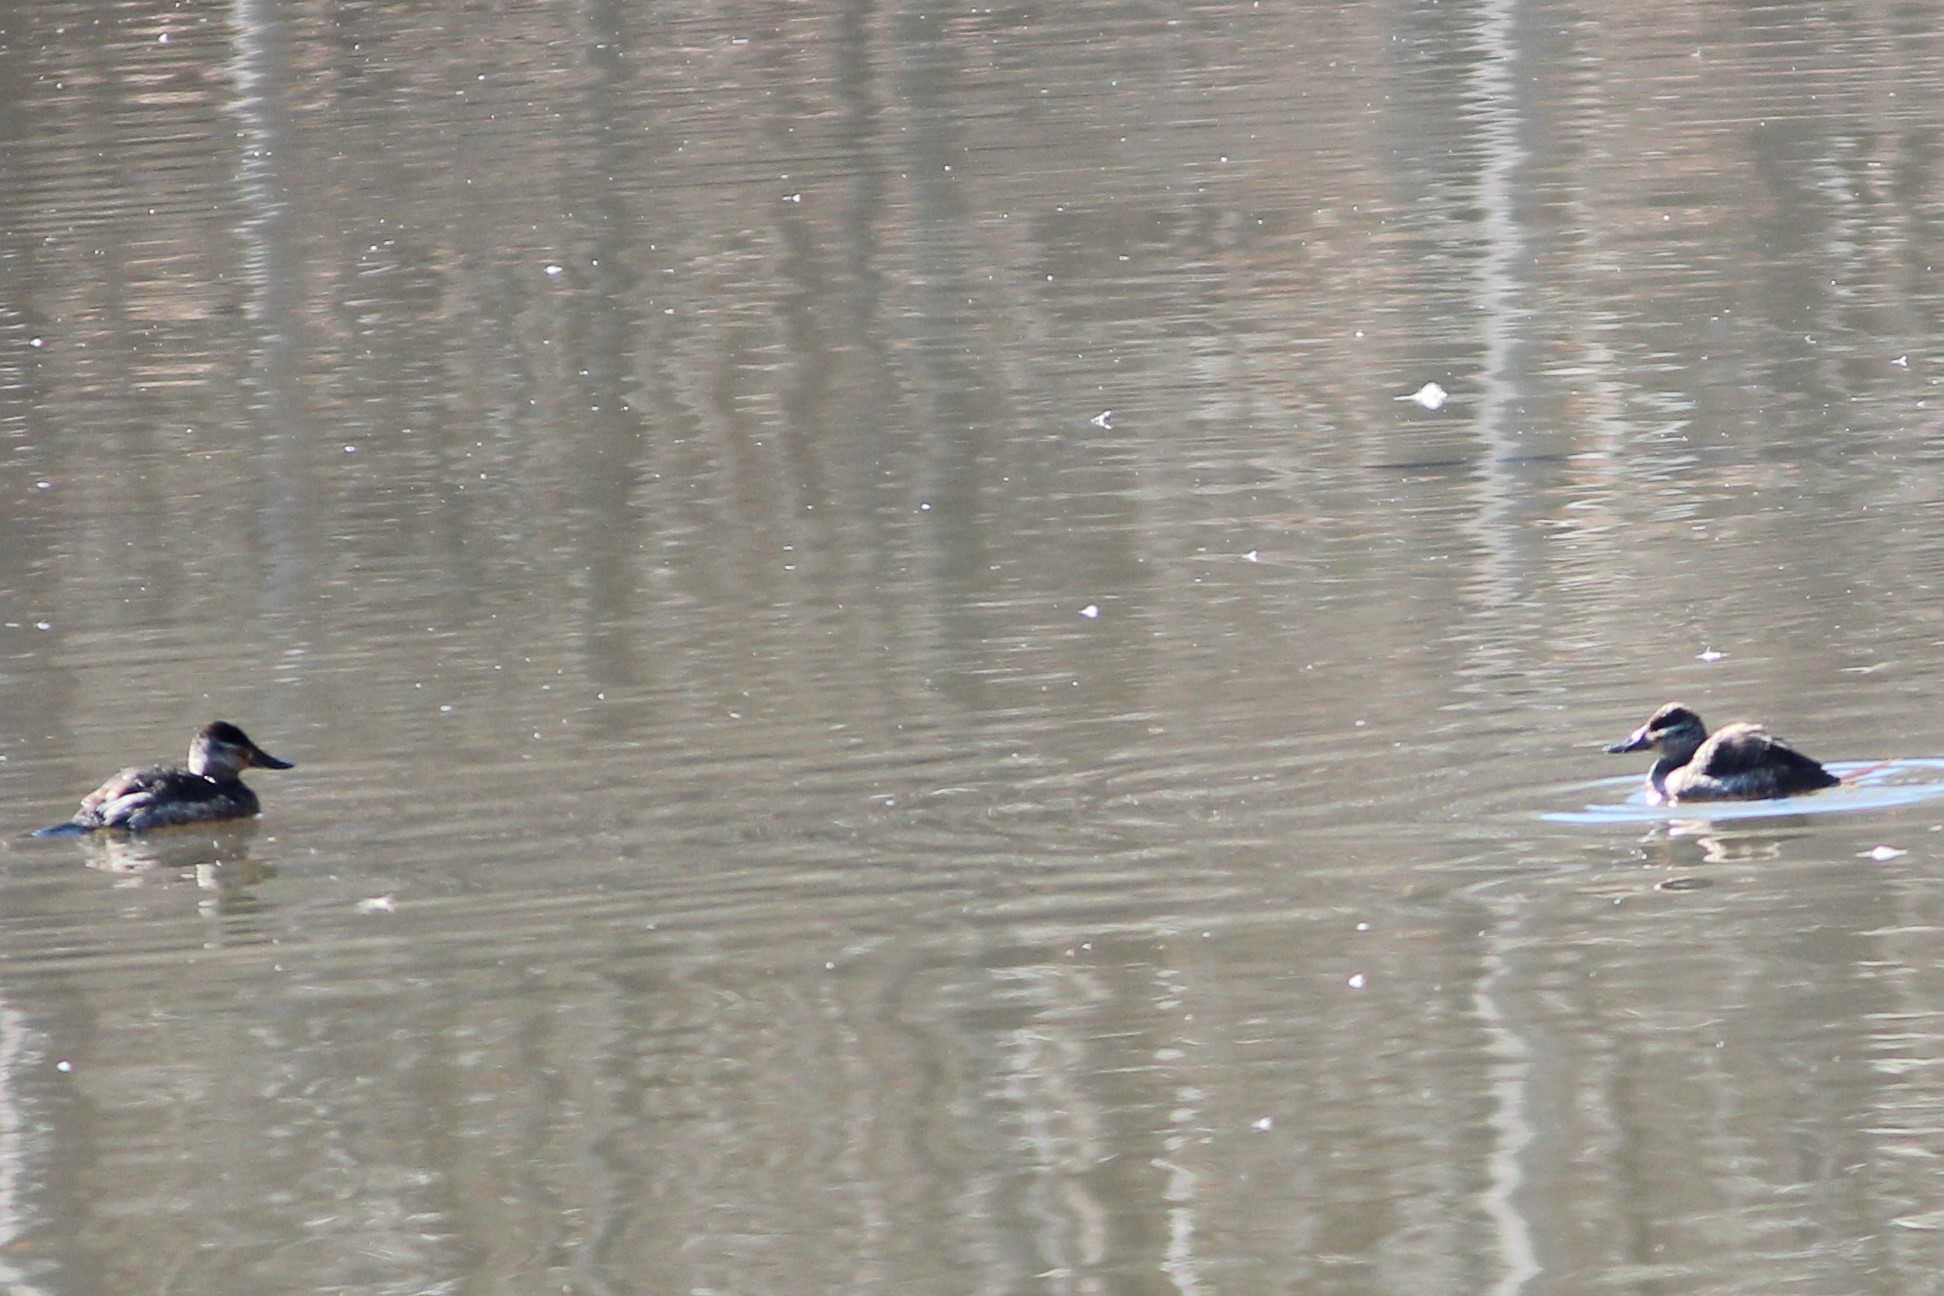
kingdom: Animalia
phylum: Chordata
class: Aves
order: Anseriformes
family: Anatidae
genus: Oxyura
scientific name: Oxyura jamaicensis
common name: Ruddy duck
